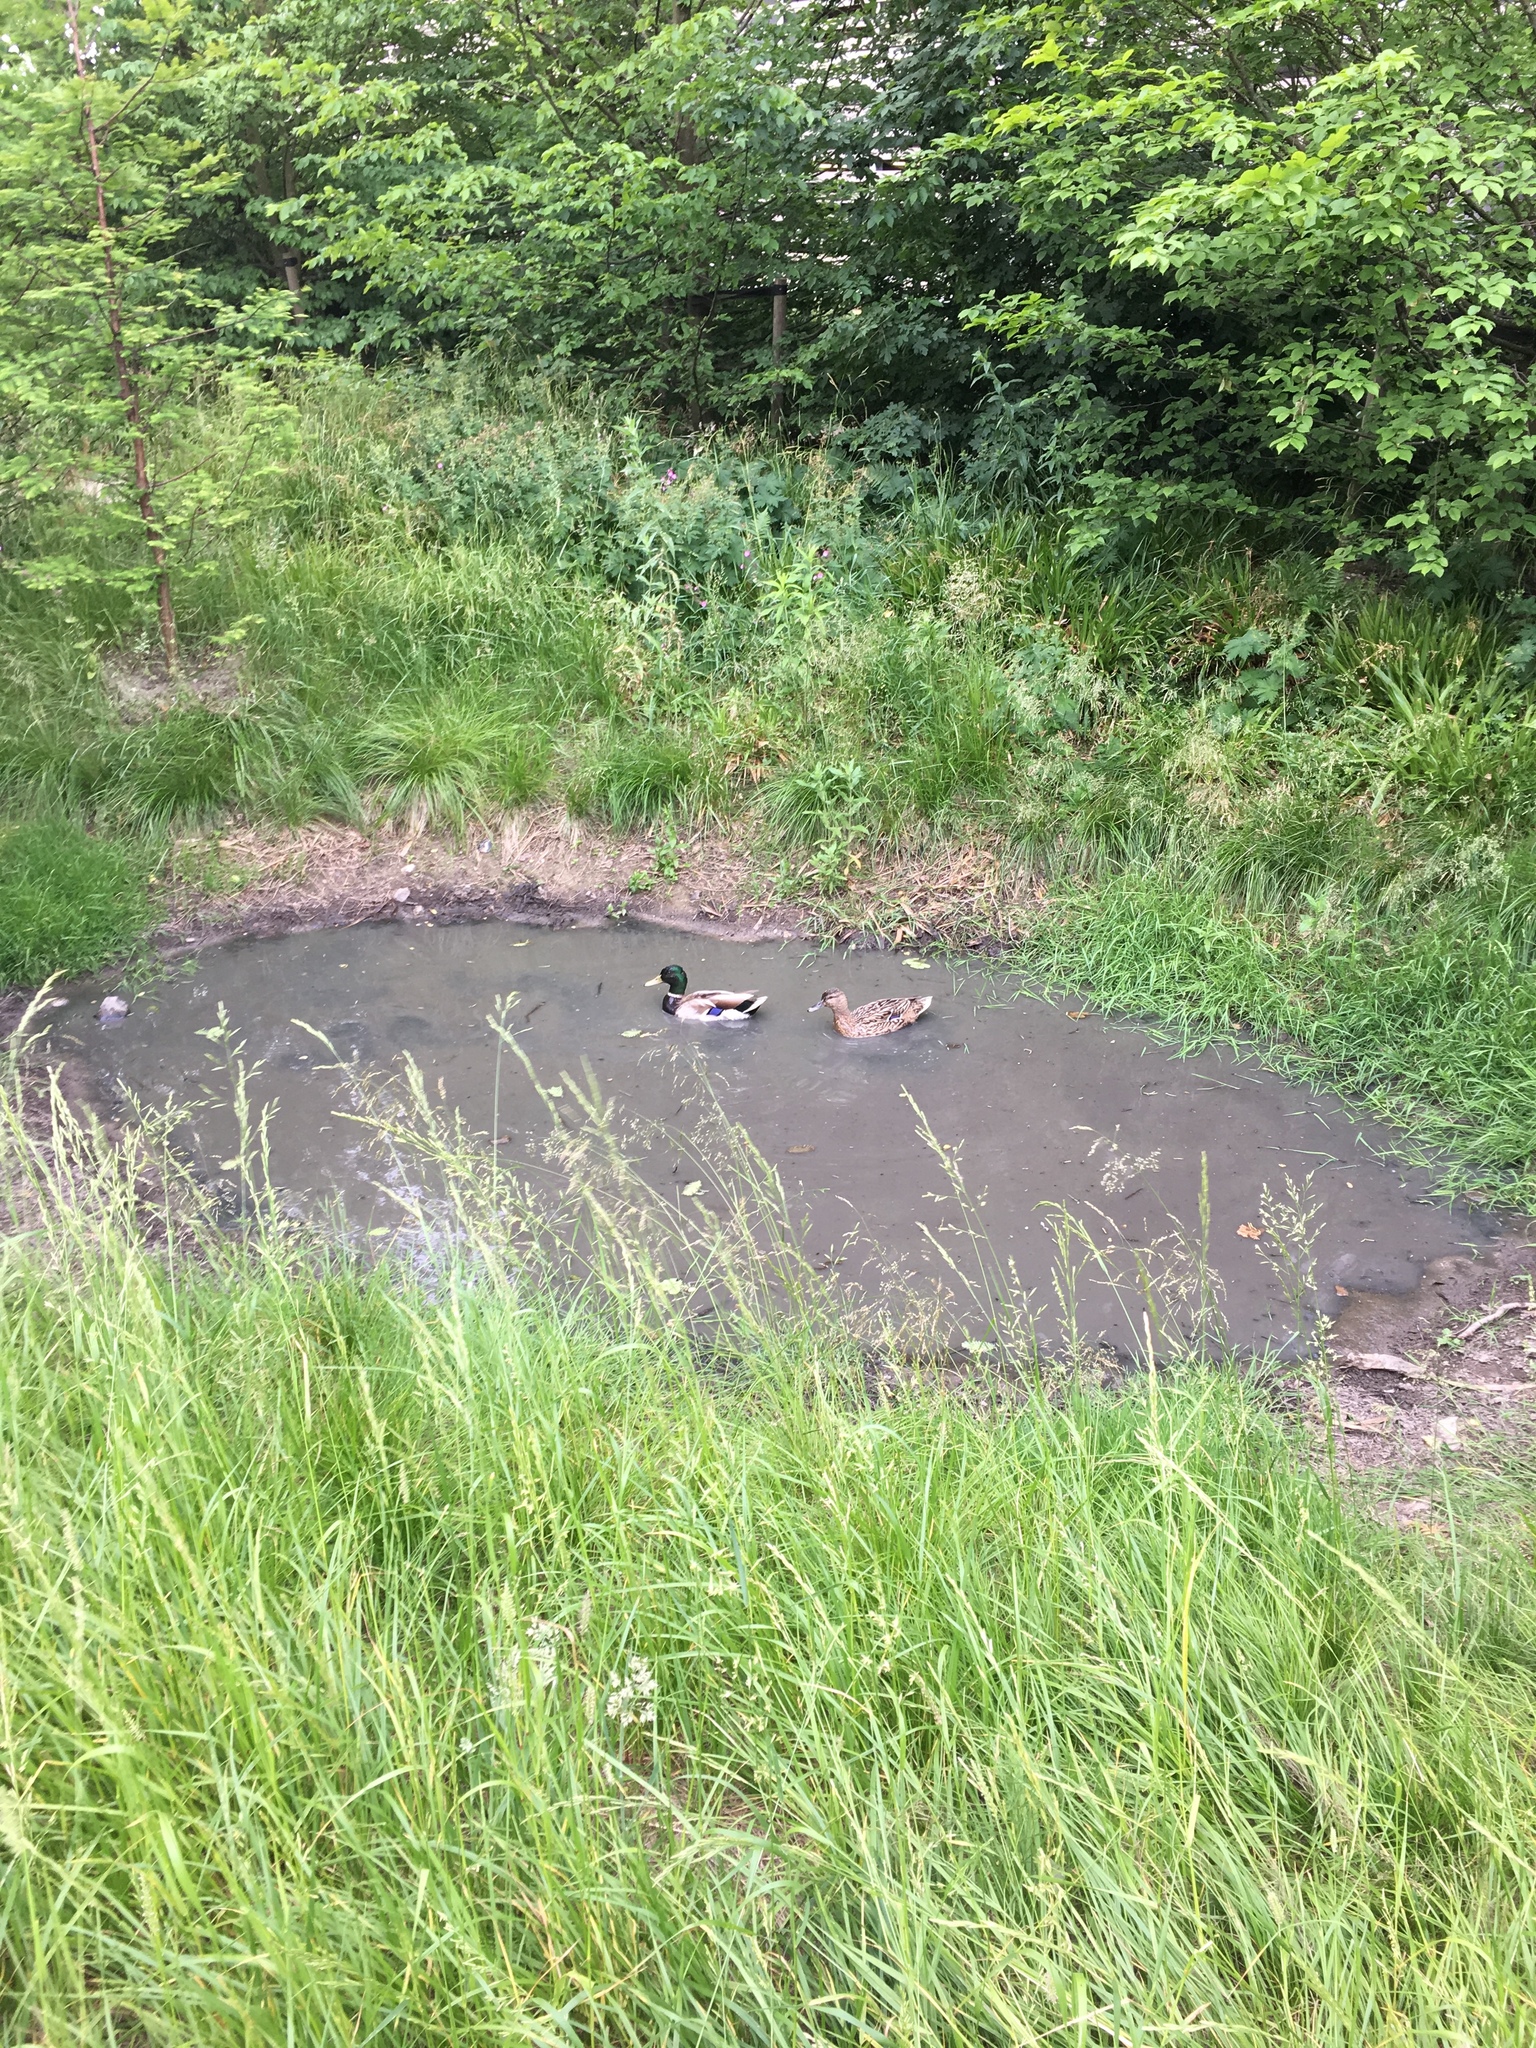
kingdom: Animalia
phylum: Chordata
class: Aves
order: Anseriformes
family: Anatidae
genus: Anas
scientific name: Anas platyrhynchos
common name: Mallard
